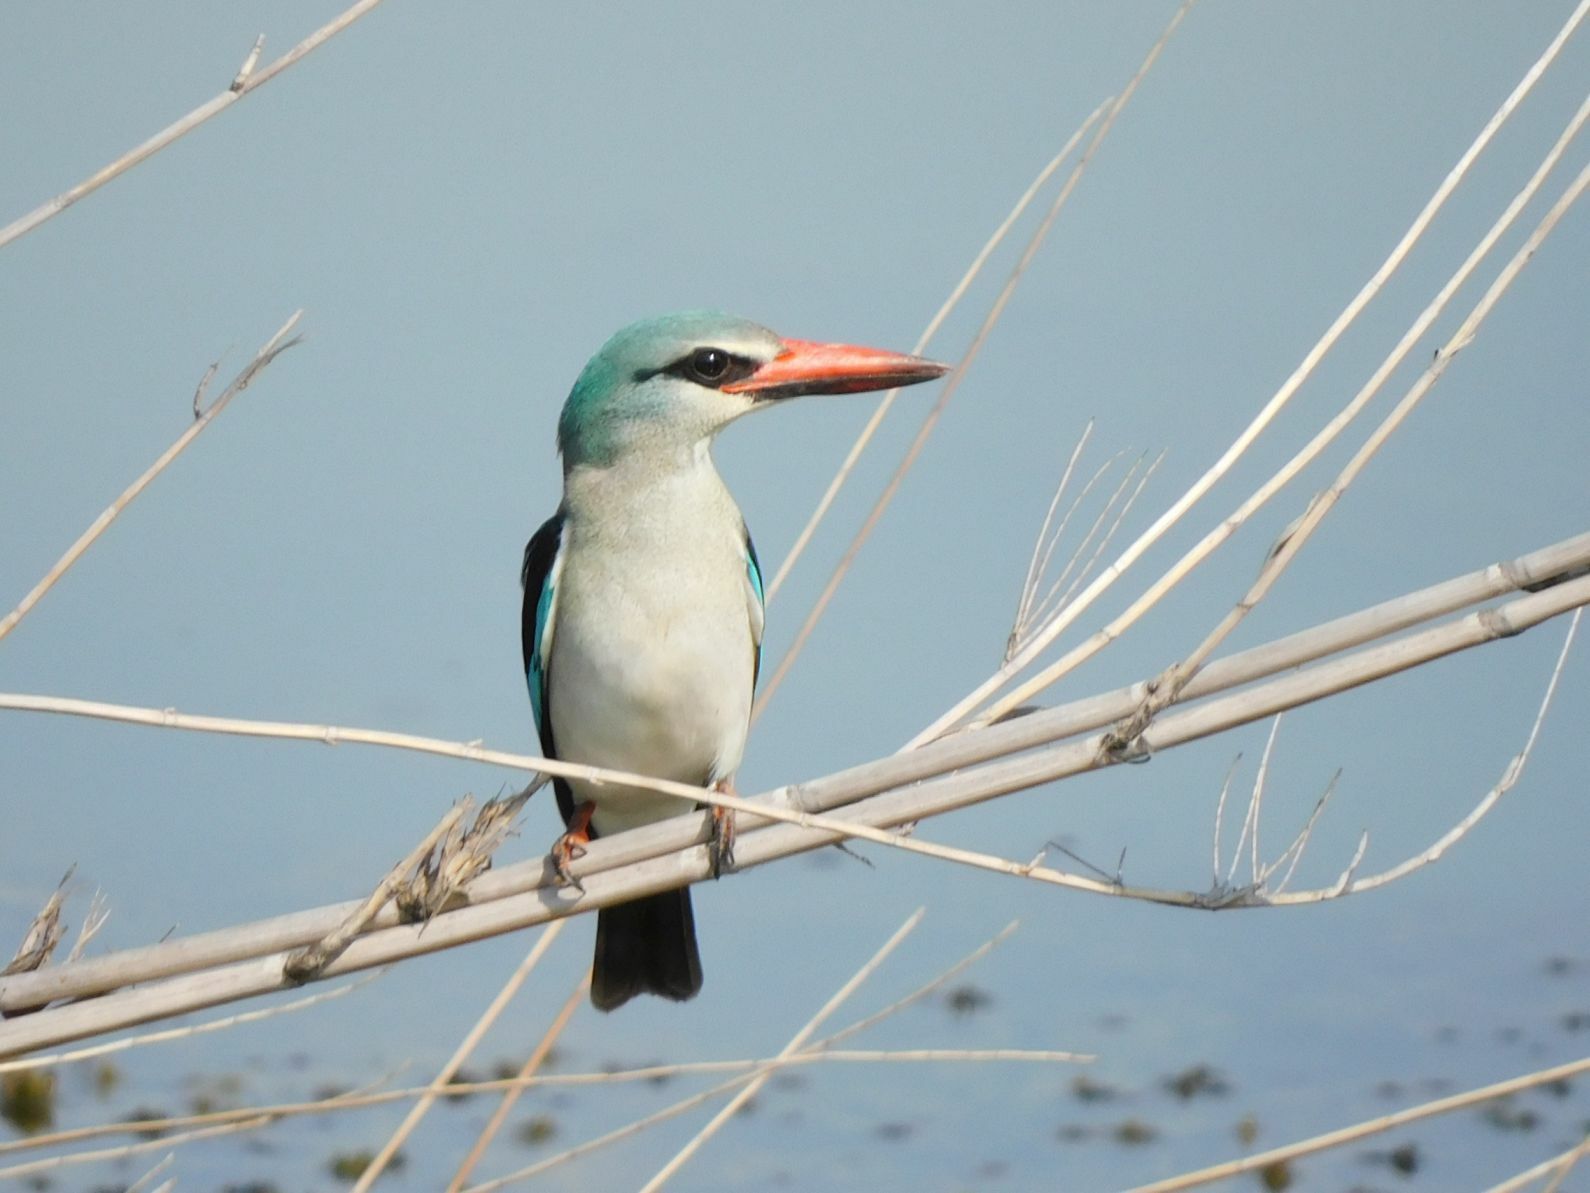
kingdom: Animalia
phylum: Chordata
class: Aves
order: Coraciiformes
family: Alcedinidae
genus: Halcyon
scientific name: Halcyon senegalensis
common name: Woodland kingfisher
